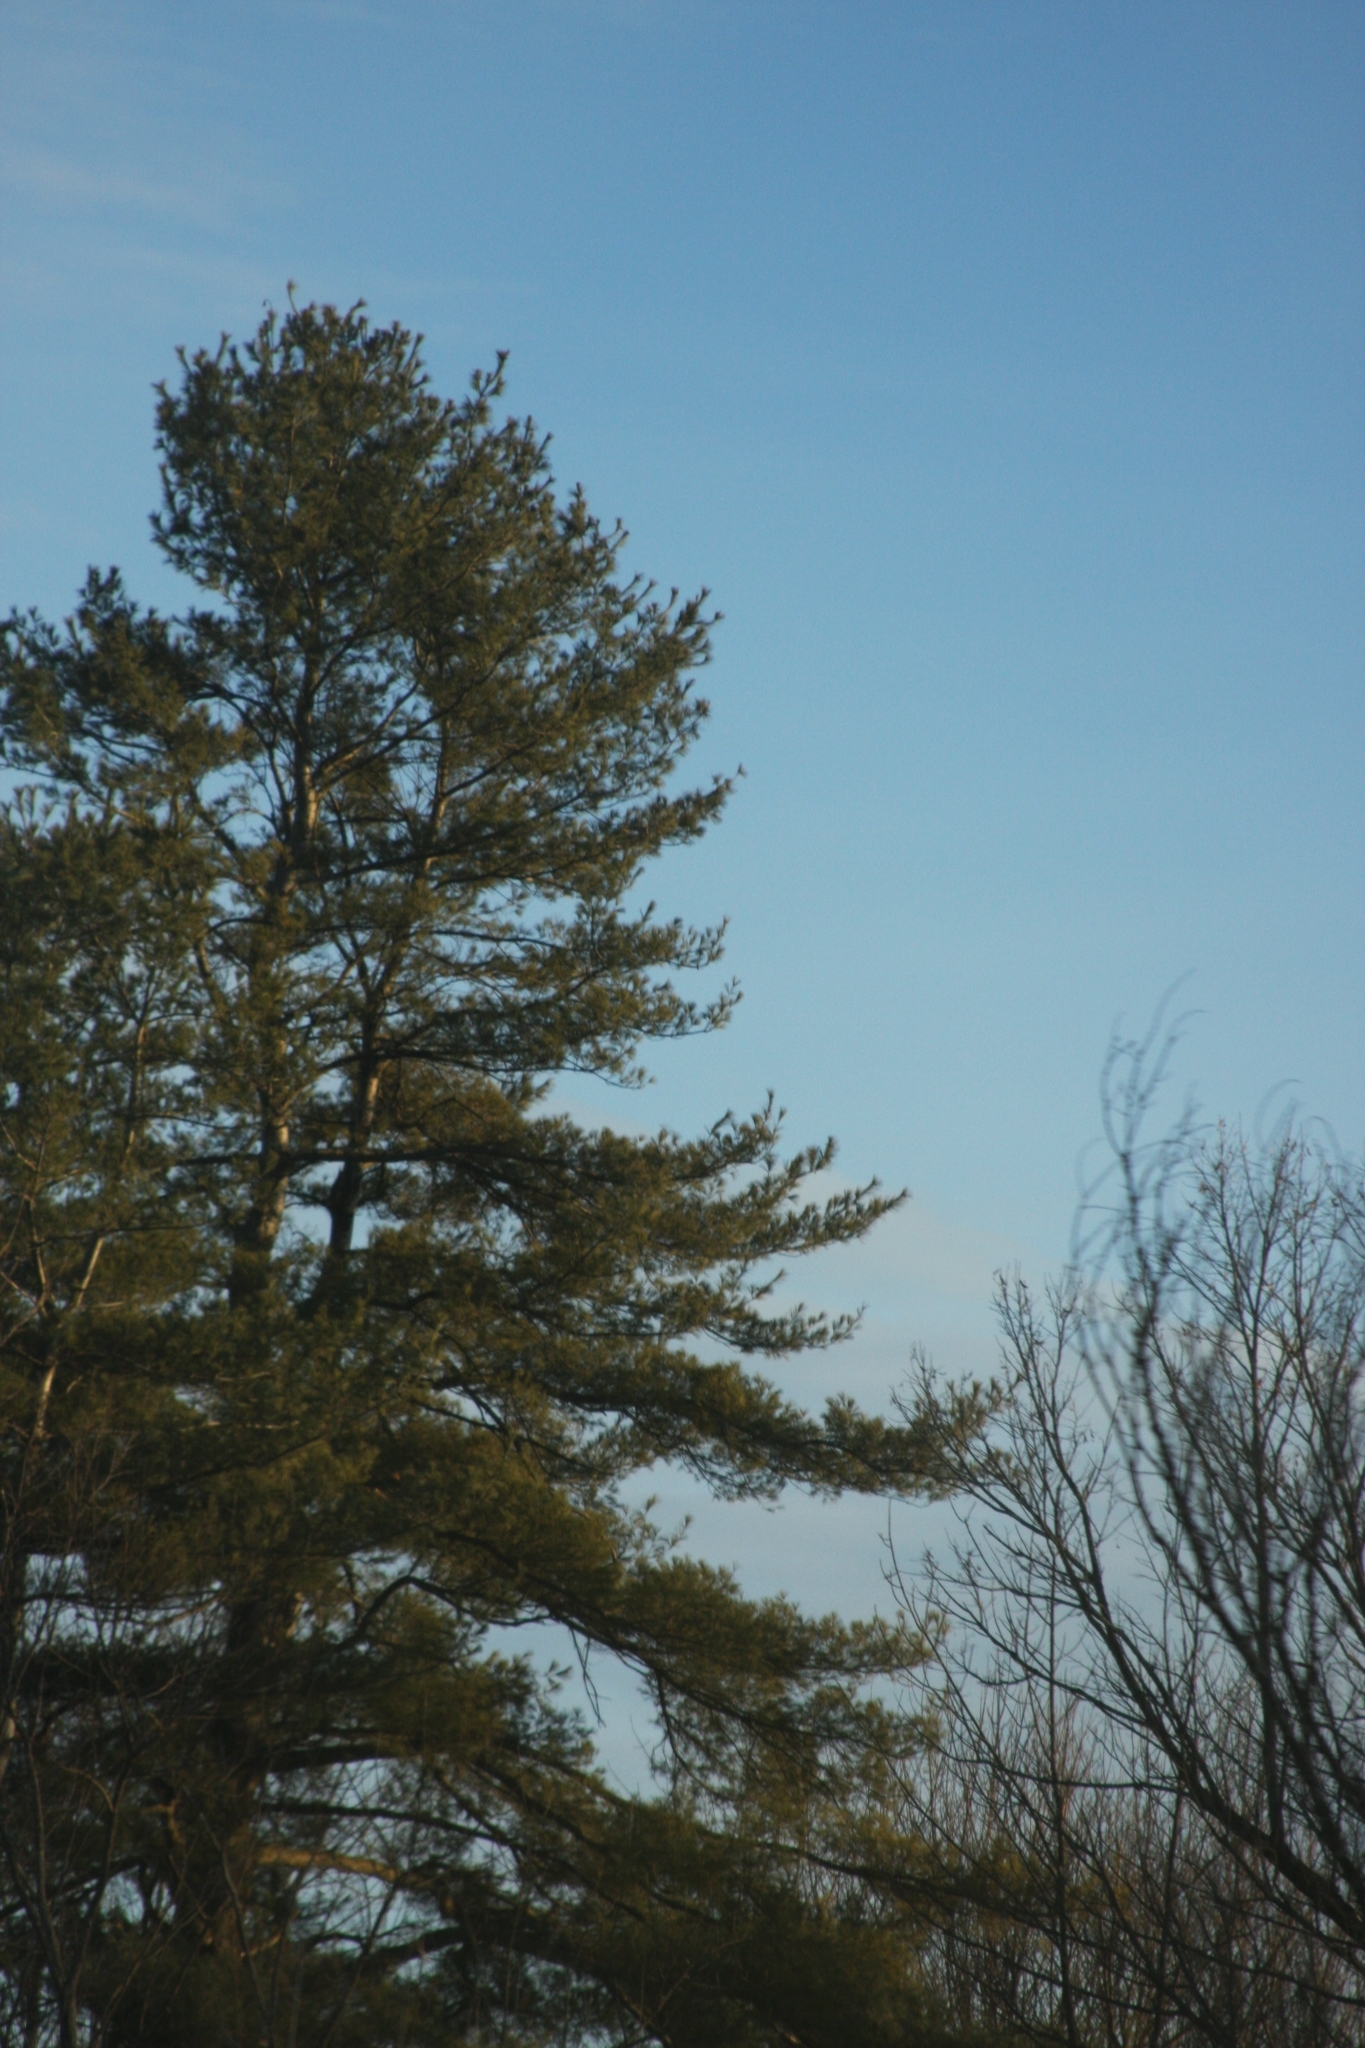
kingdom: Plantae
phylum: Tracheophyta
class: Pinopsida
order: Pinales
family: Pinaceae
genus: Pinus
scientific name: Pinus strobus
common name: Weymouth pine
